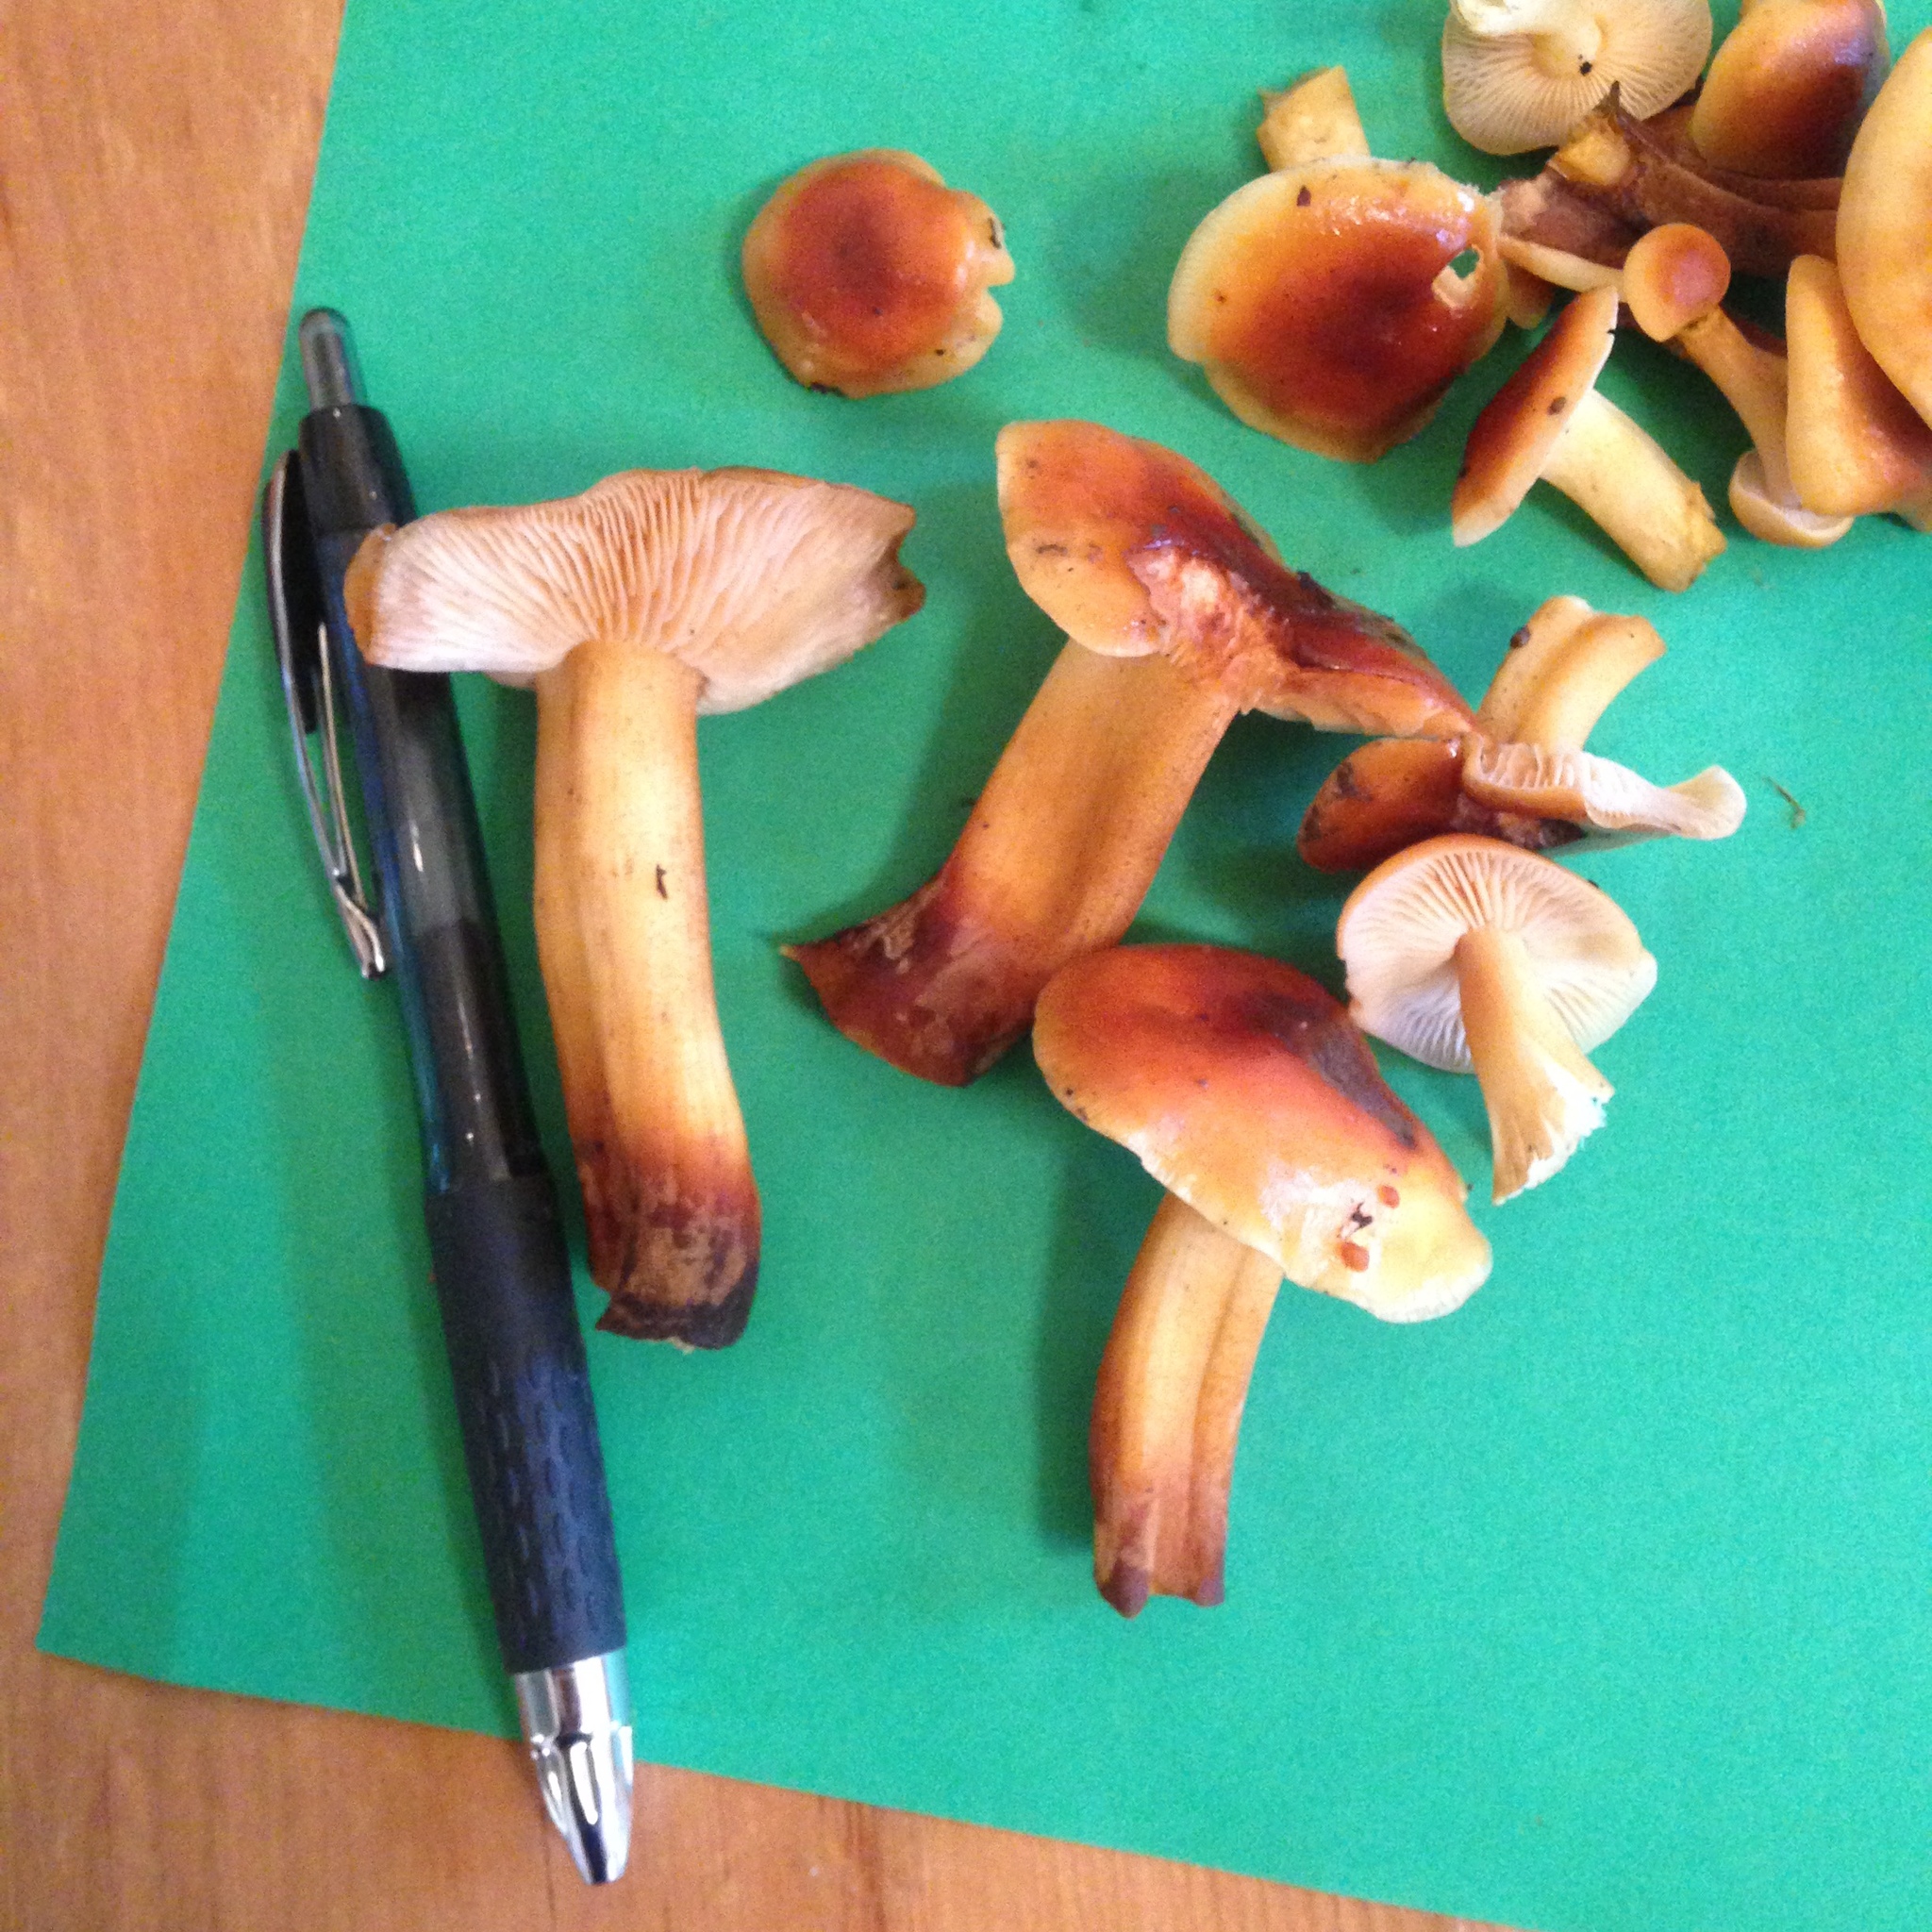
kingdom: Fungi
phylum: Basidiomycota
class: Agaricomycetes
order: Agaricales
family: Physalacriaceae
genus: Flammulina
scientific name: Flammulina velutipes
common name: Velvet shank
